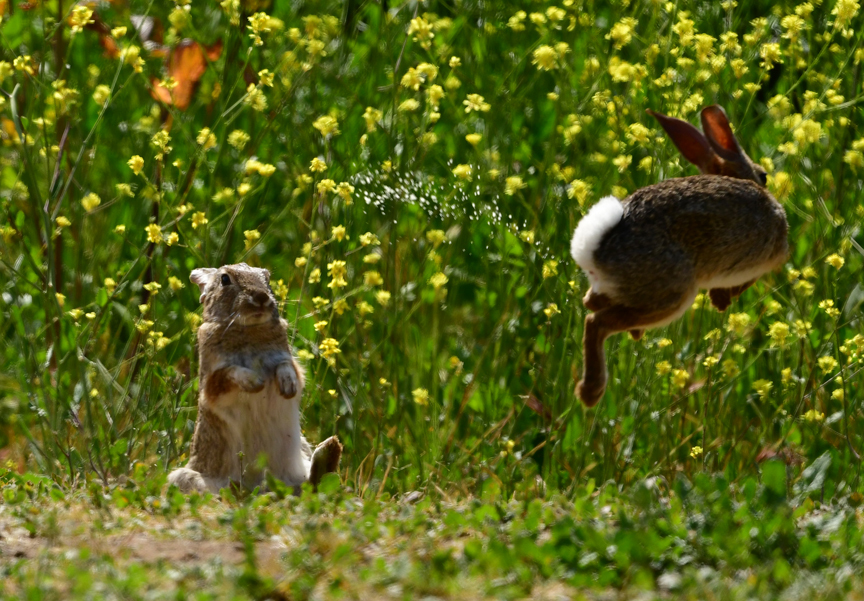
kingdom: Animalia
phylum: Chordata
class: Mammalia
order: Lagomorpha
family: Leporidae
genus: Sylvilagus
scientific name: Sylvilagus audubonii
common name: Desert cottontail
